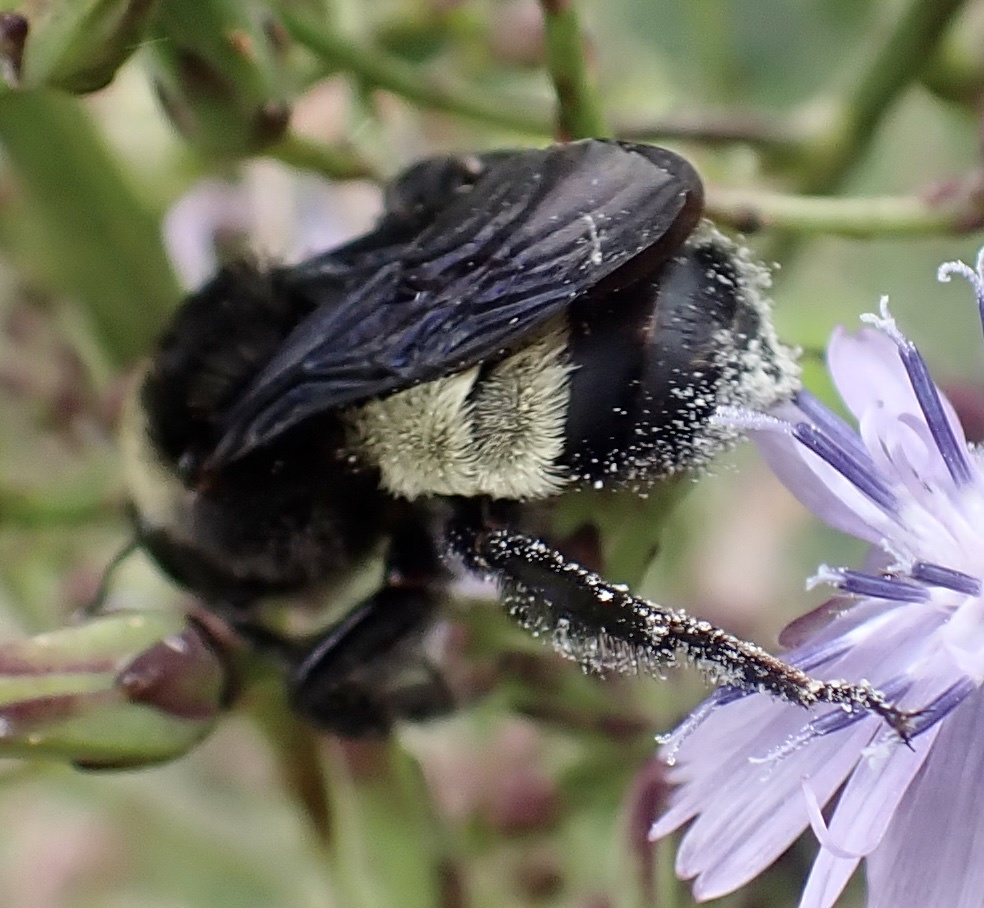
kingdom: Animalia
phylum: Arthropoda
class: Insecta
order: Hymenoptera
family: Apidae
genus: Bombus
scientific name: Bombus pensylvanicus
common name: Bumble bee
